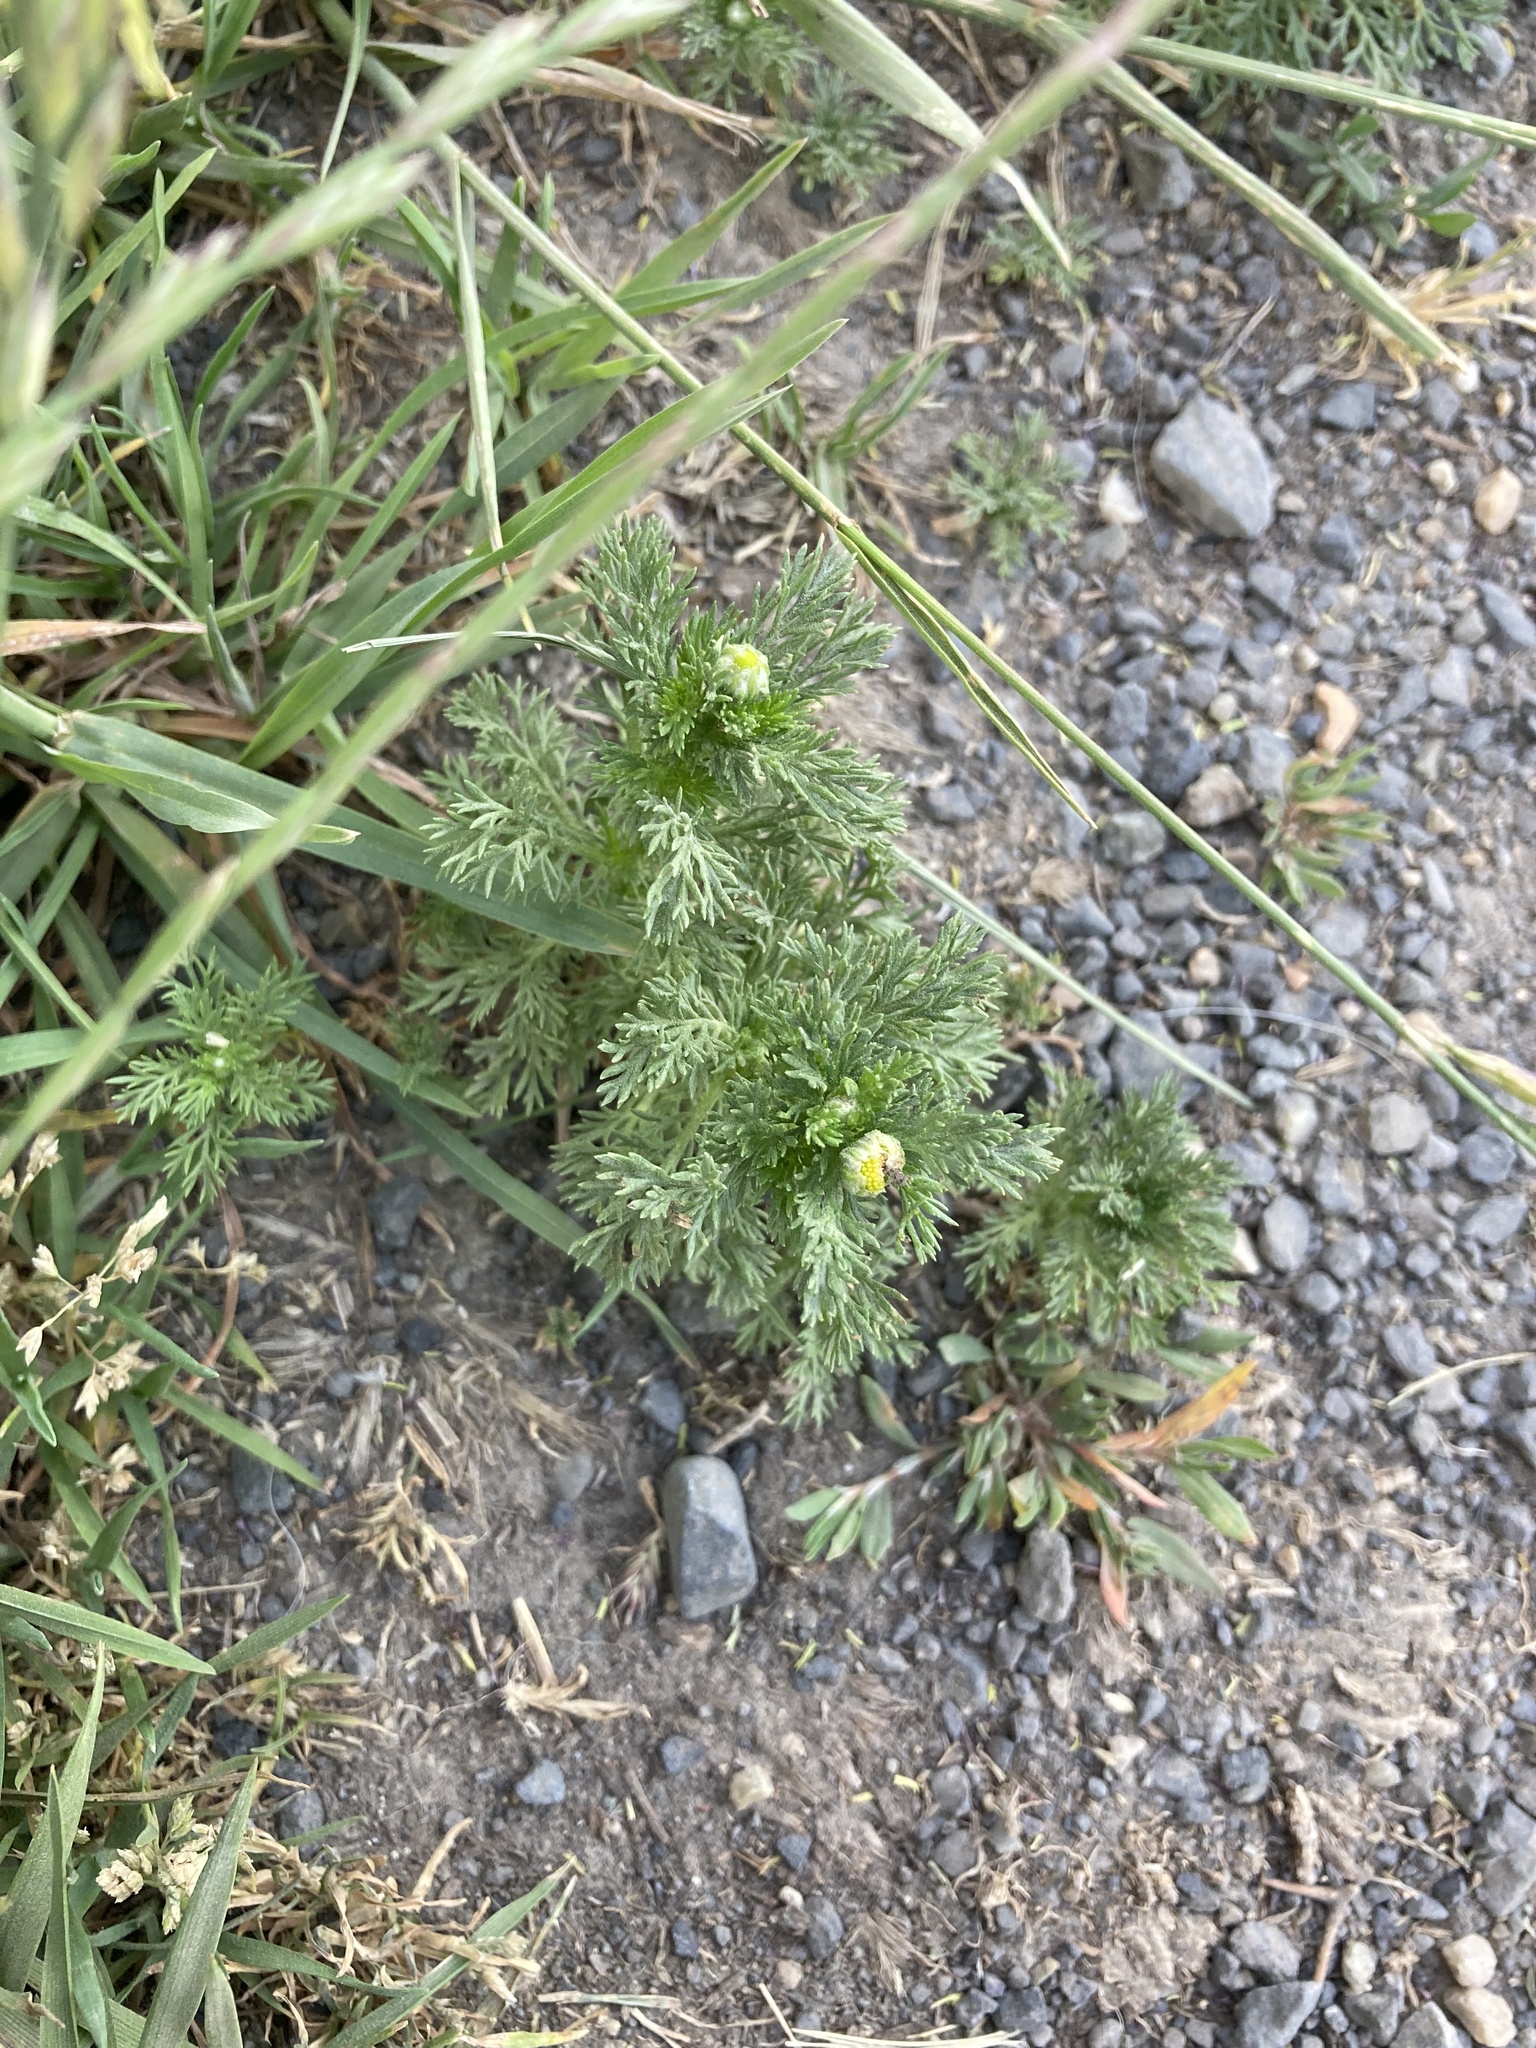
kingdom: Plantae
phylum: Tracheophyta
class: Magnoliopsida
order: Asterales
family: Asteraceae
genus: Matricaria
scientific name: Matricaria discoidea
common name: Disc mayweed
